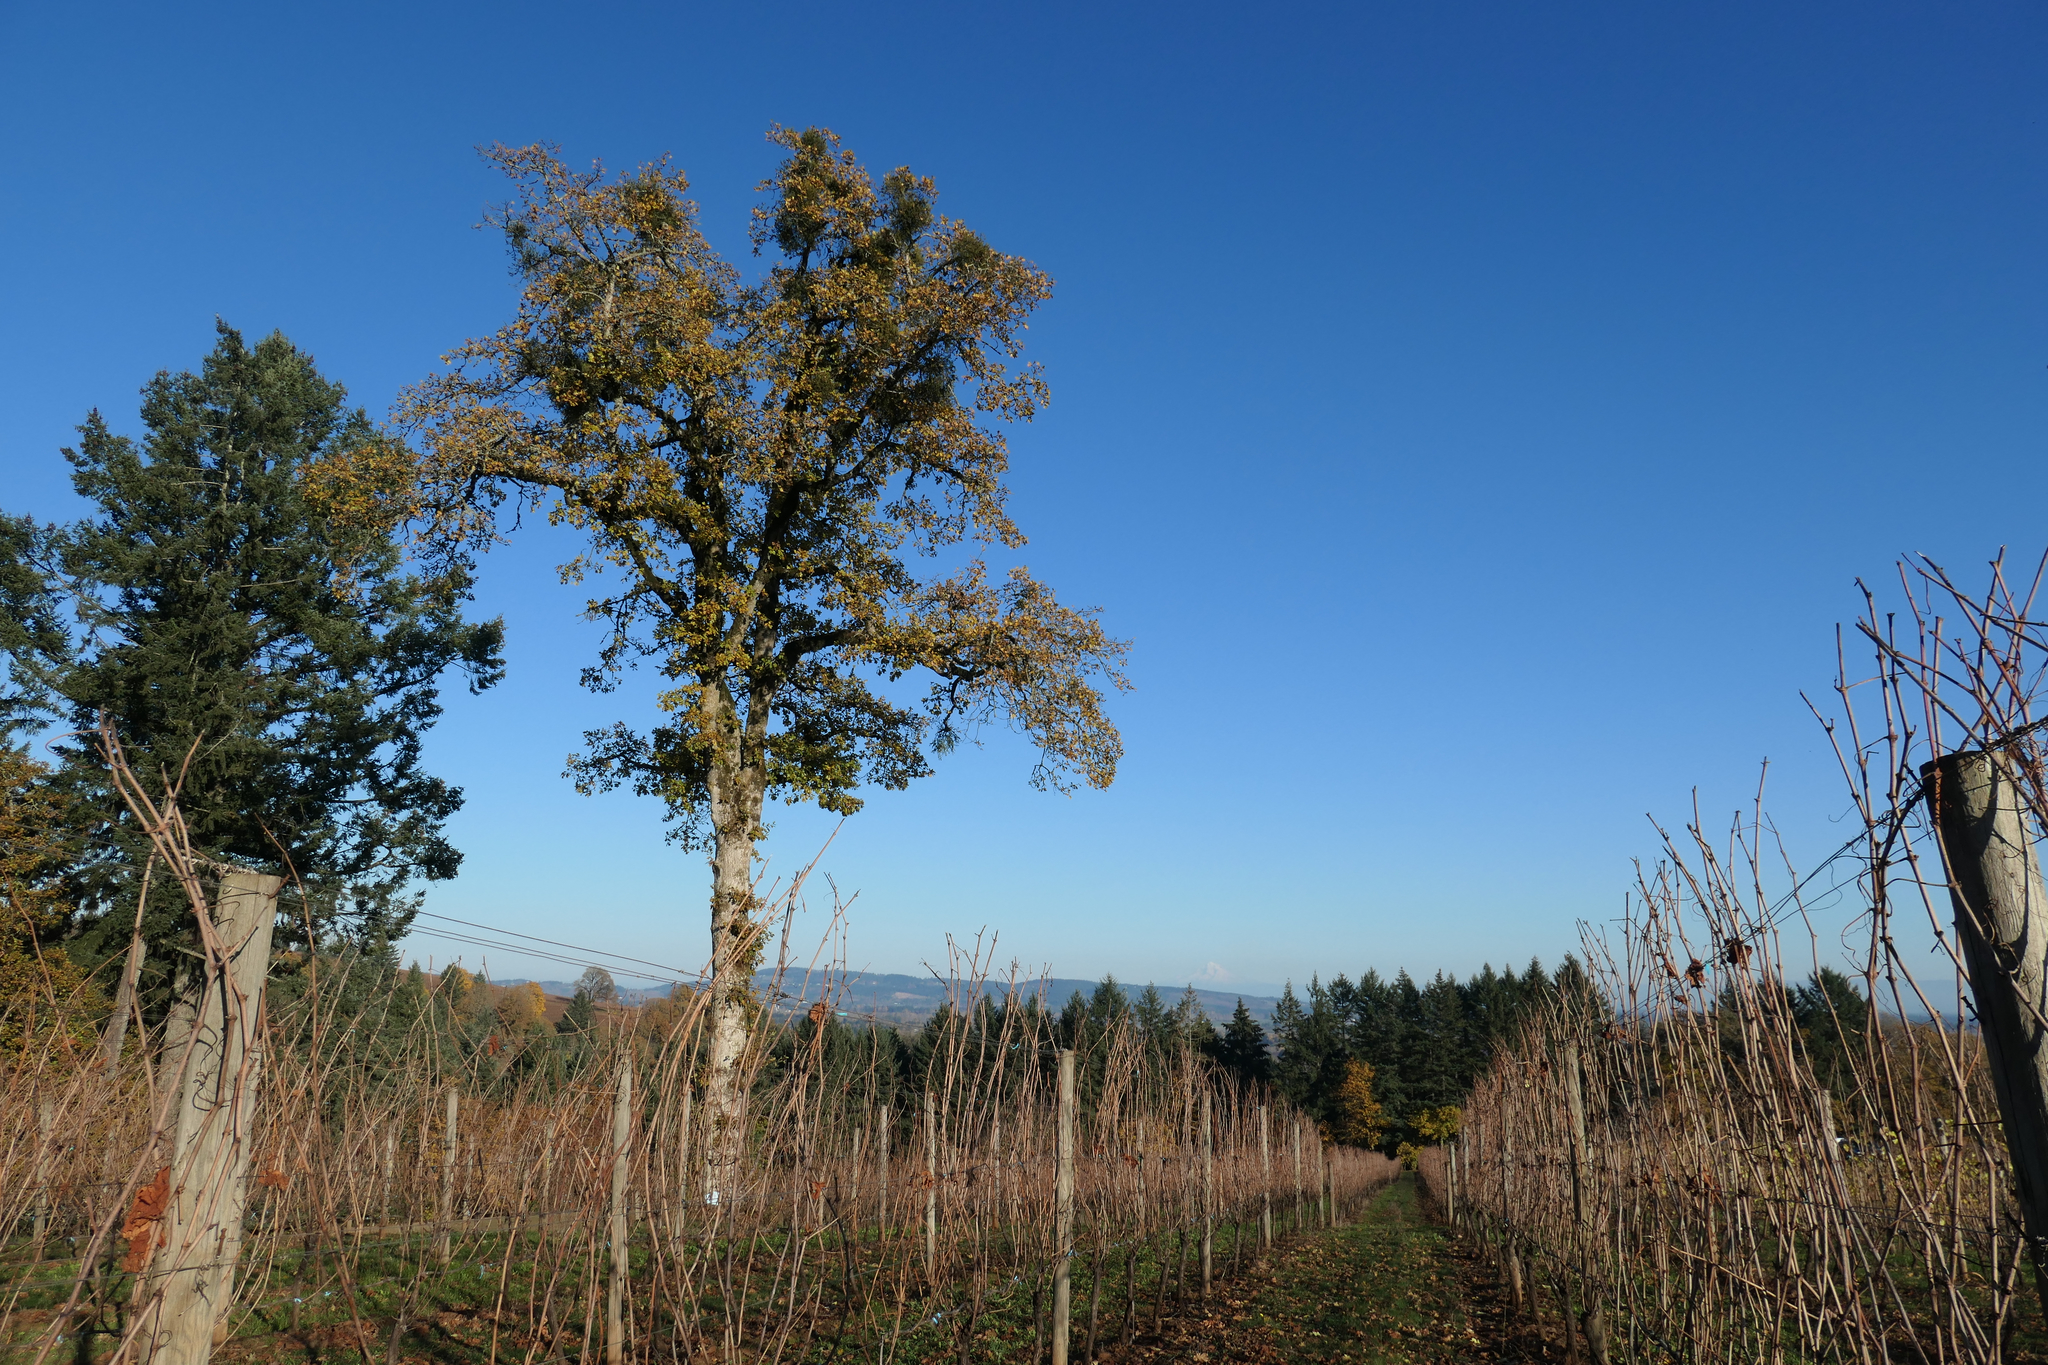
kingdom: Plantae
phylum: Tracheophyta
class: Magnoliopsida
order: Fagales
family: Fagaceae
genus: Quercus
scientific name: Quercus garryana
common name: Garry oak
